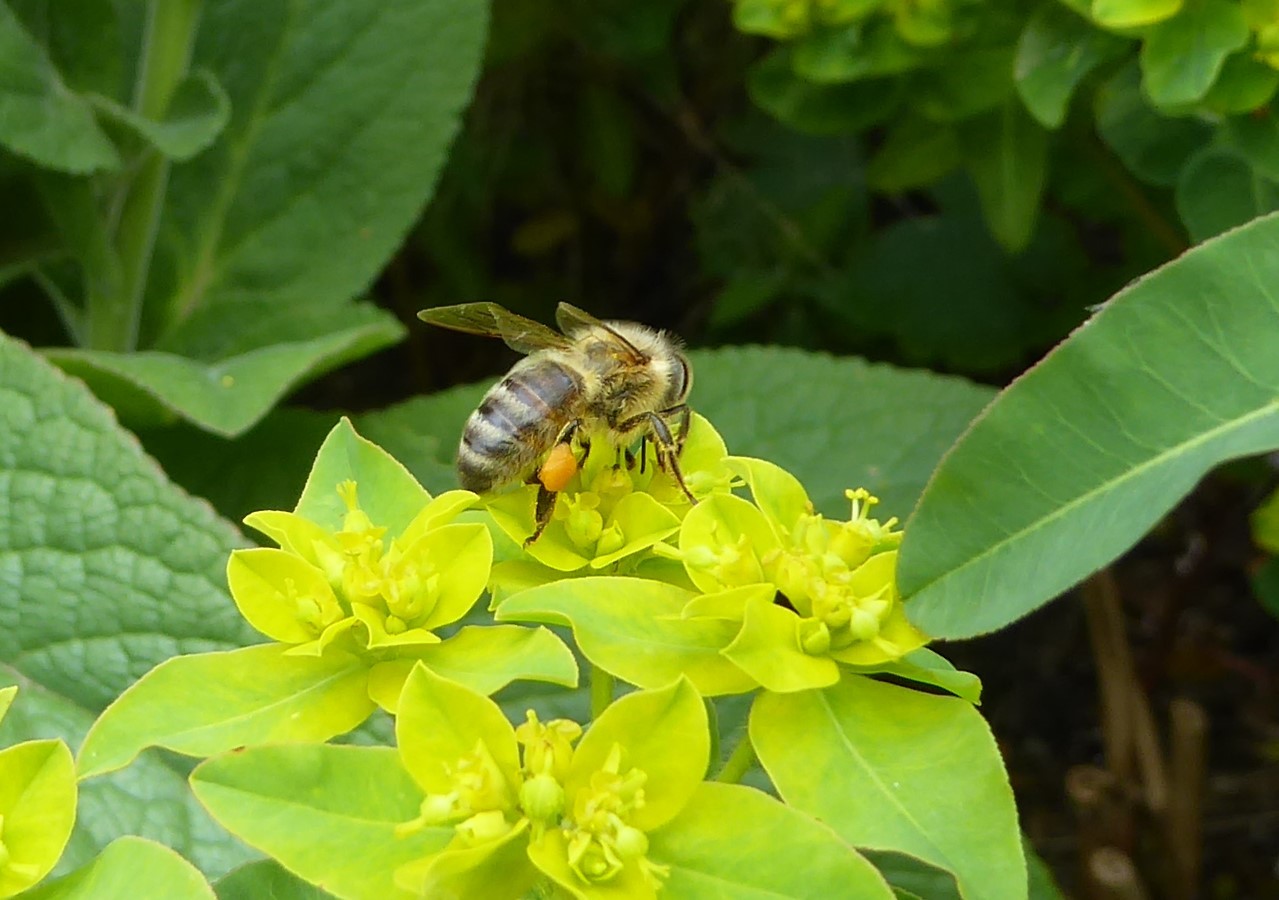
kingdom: Animalia
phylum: Arthropoda
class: Insecta
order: Hymenoptera
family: Apidae
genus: Apis
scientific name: Apis mellifera
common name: Honey bee
